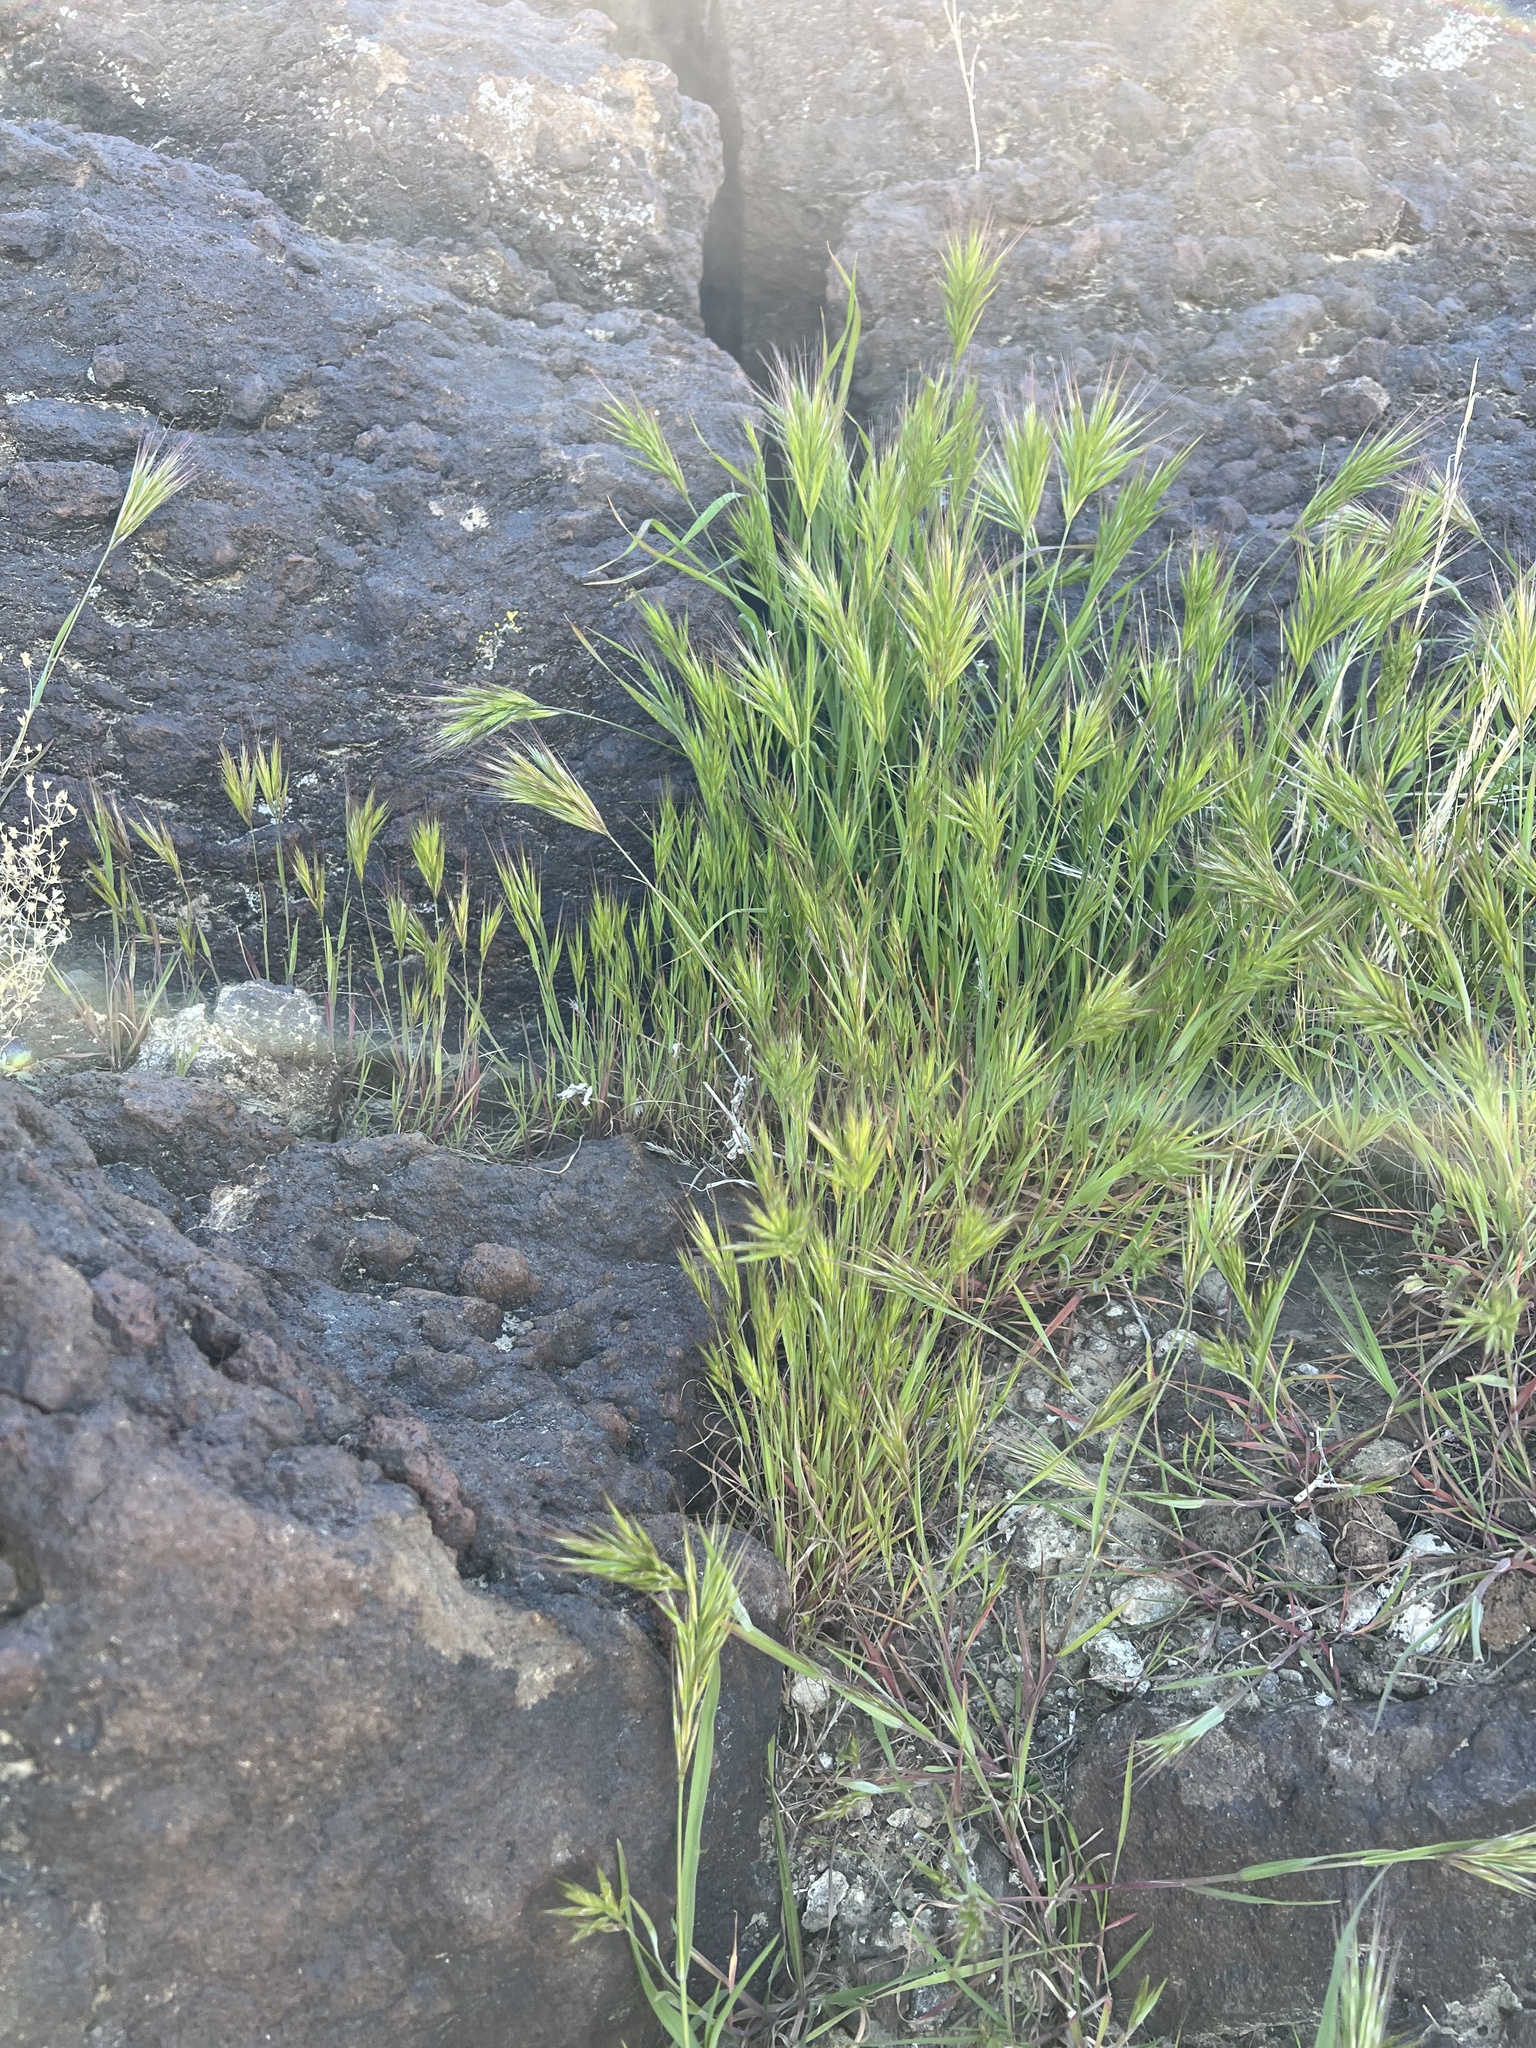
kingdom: Plantae
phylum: Tracheophyta
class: Liliopsida
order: Poales
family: Poaceae
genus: Bromus
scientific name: Bromus rubens
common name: Red brome
